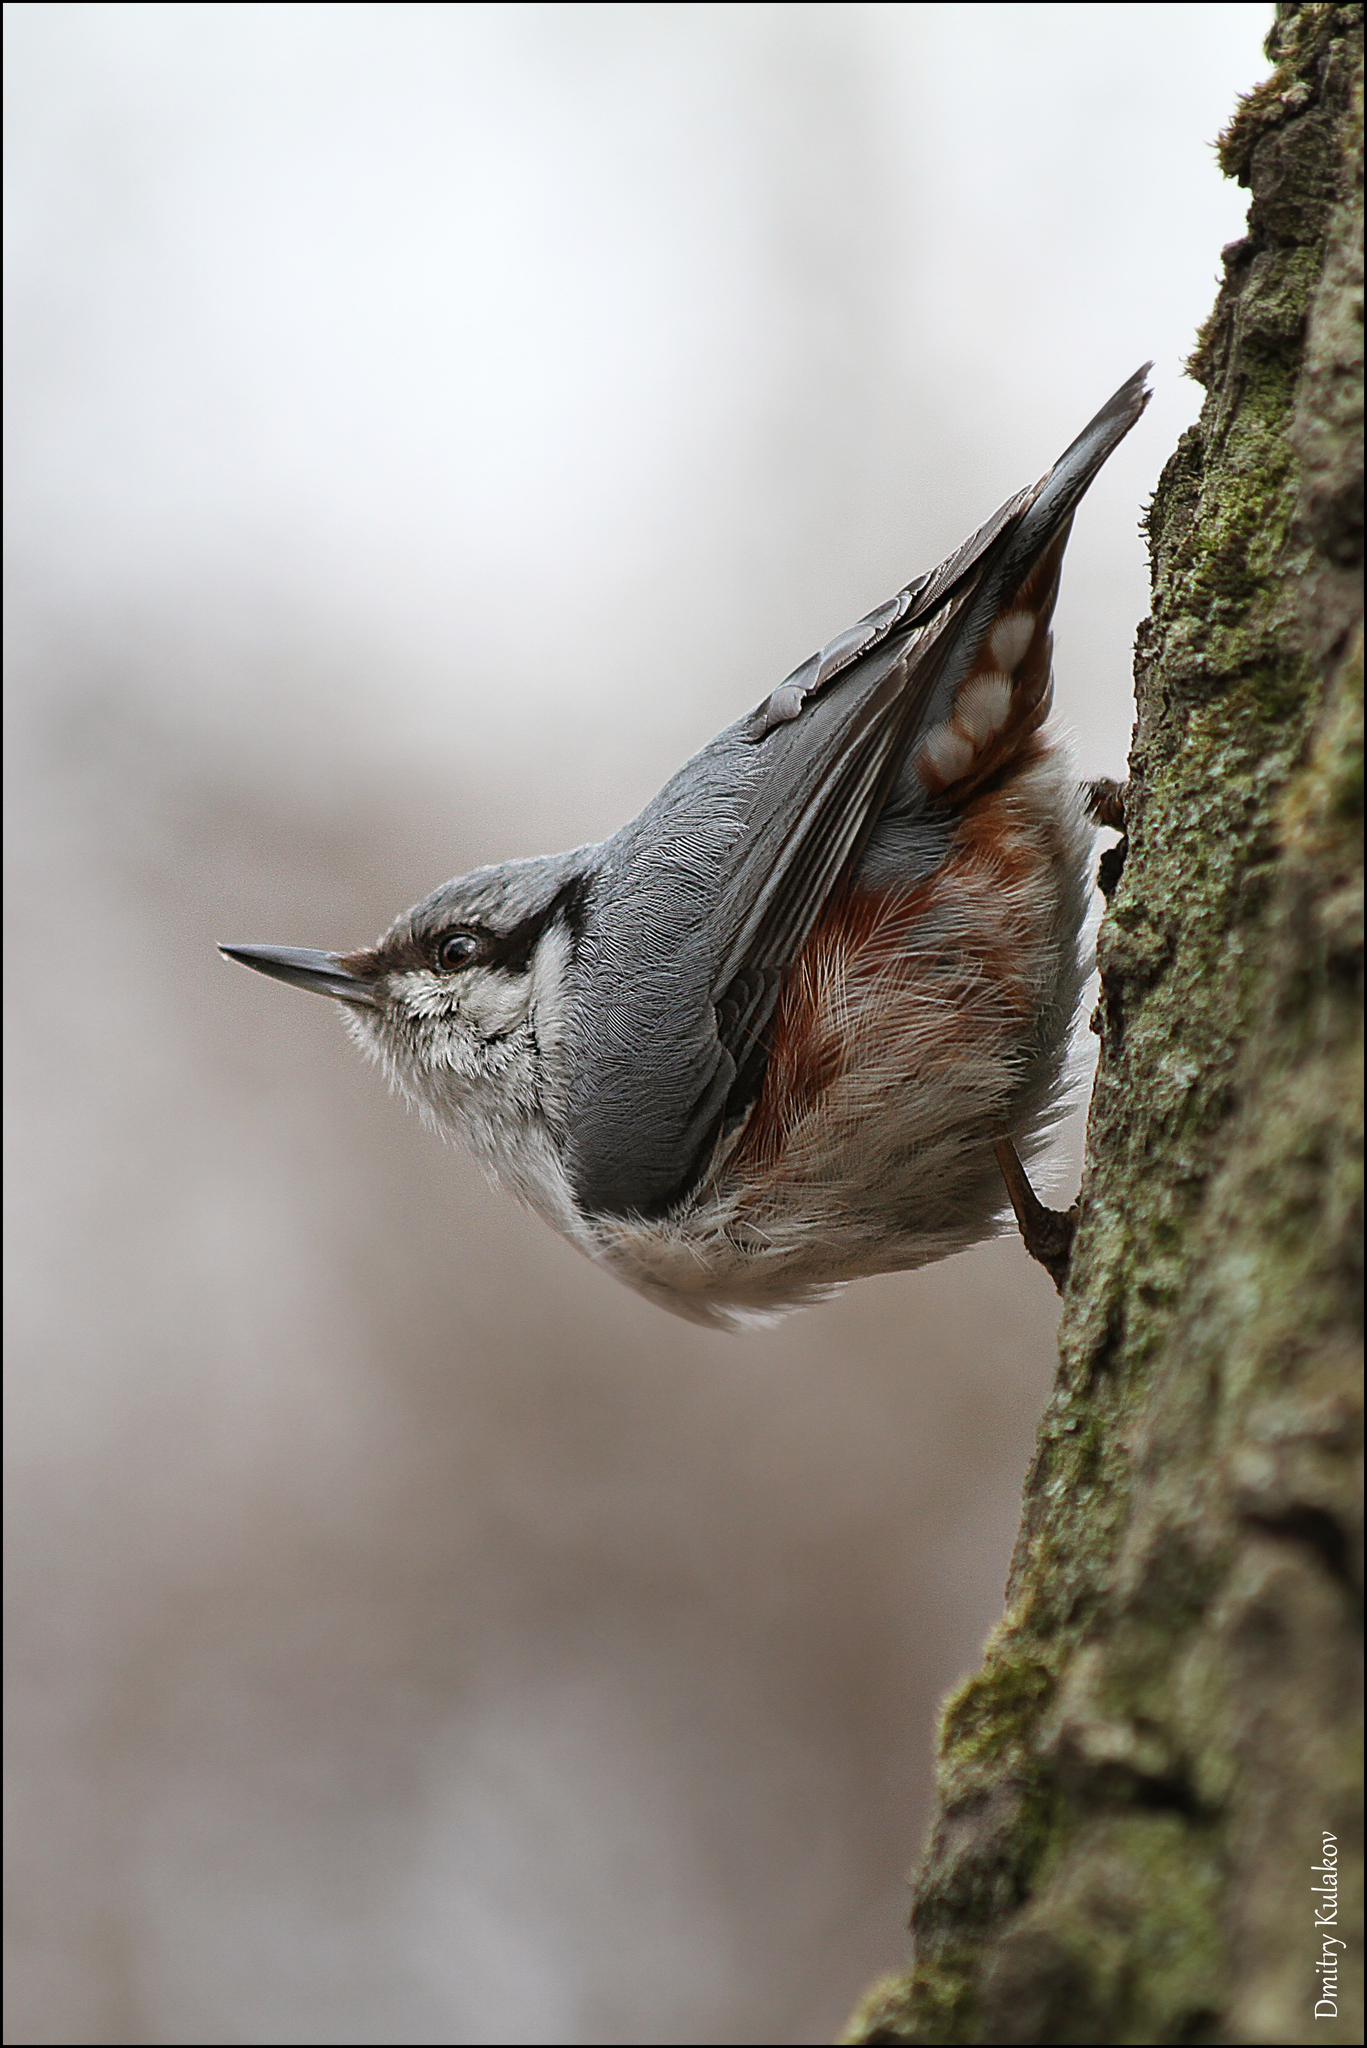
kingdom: Animalia
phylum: Chordata
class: Aves
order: Passeriformes
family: Sittidae
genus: Sitta
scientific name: Sitta europaea
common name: Eurasian nuthatch
